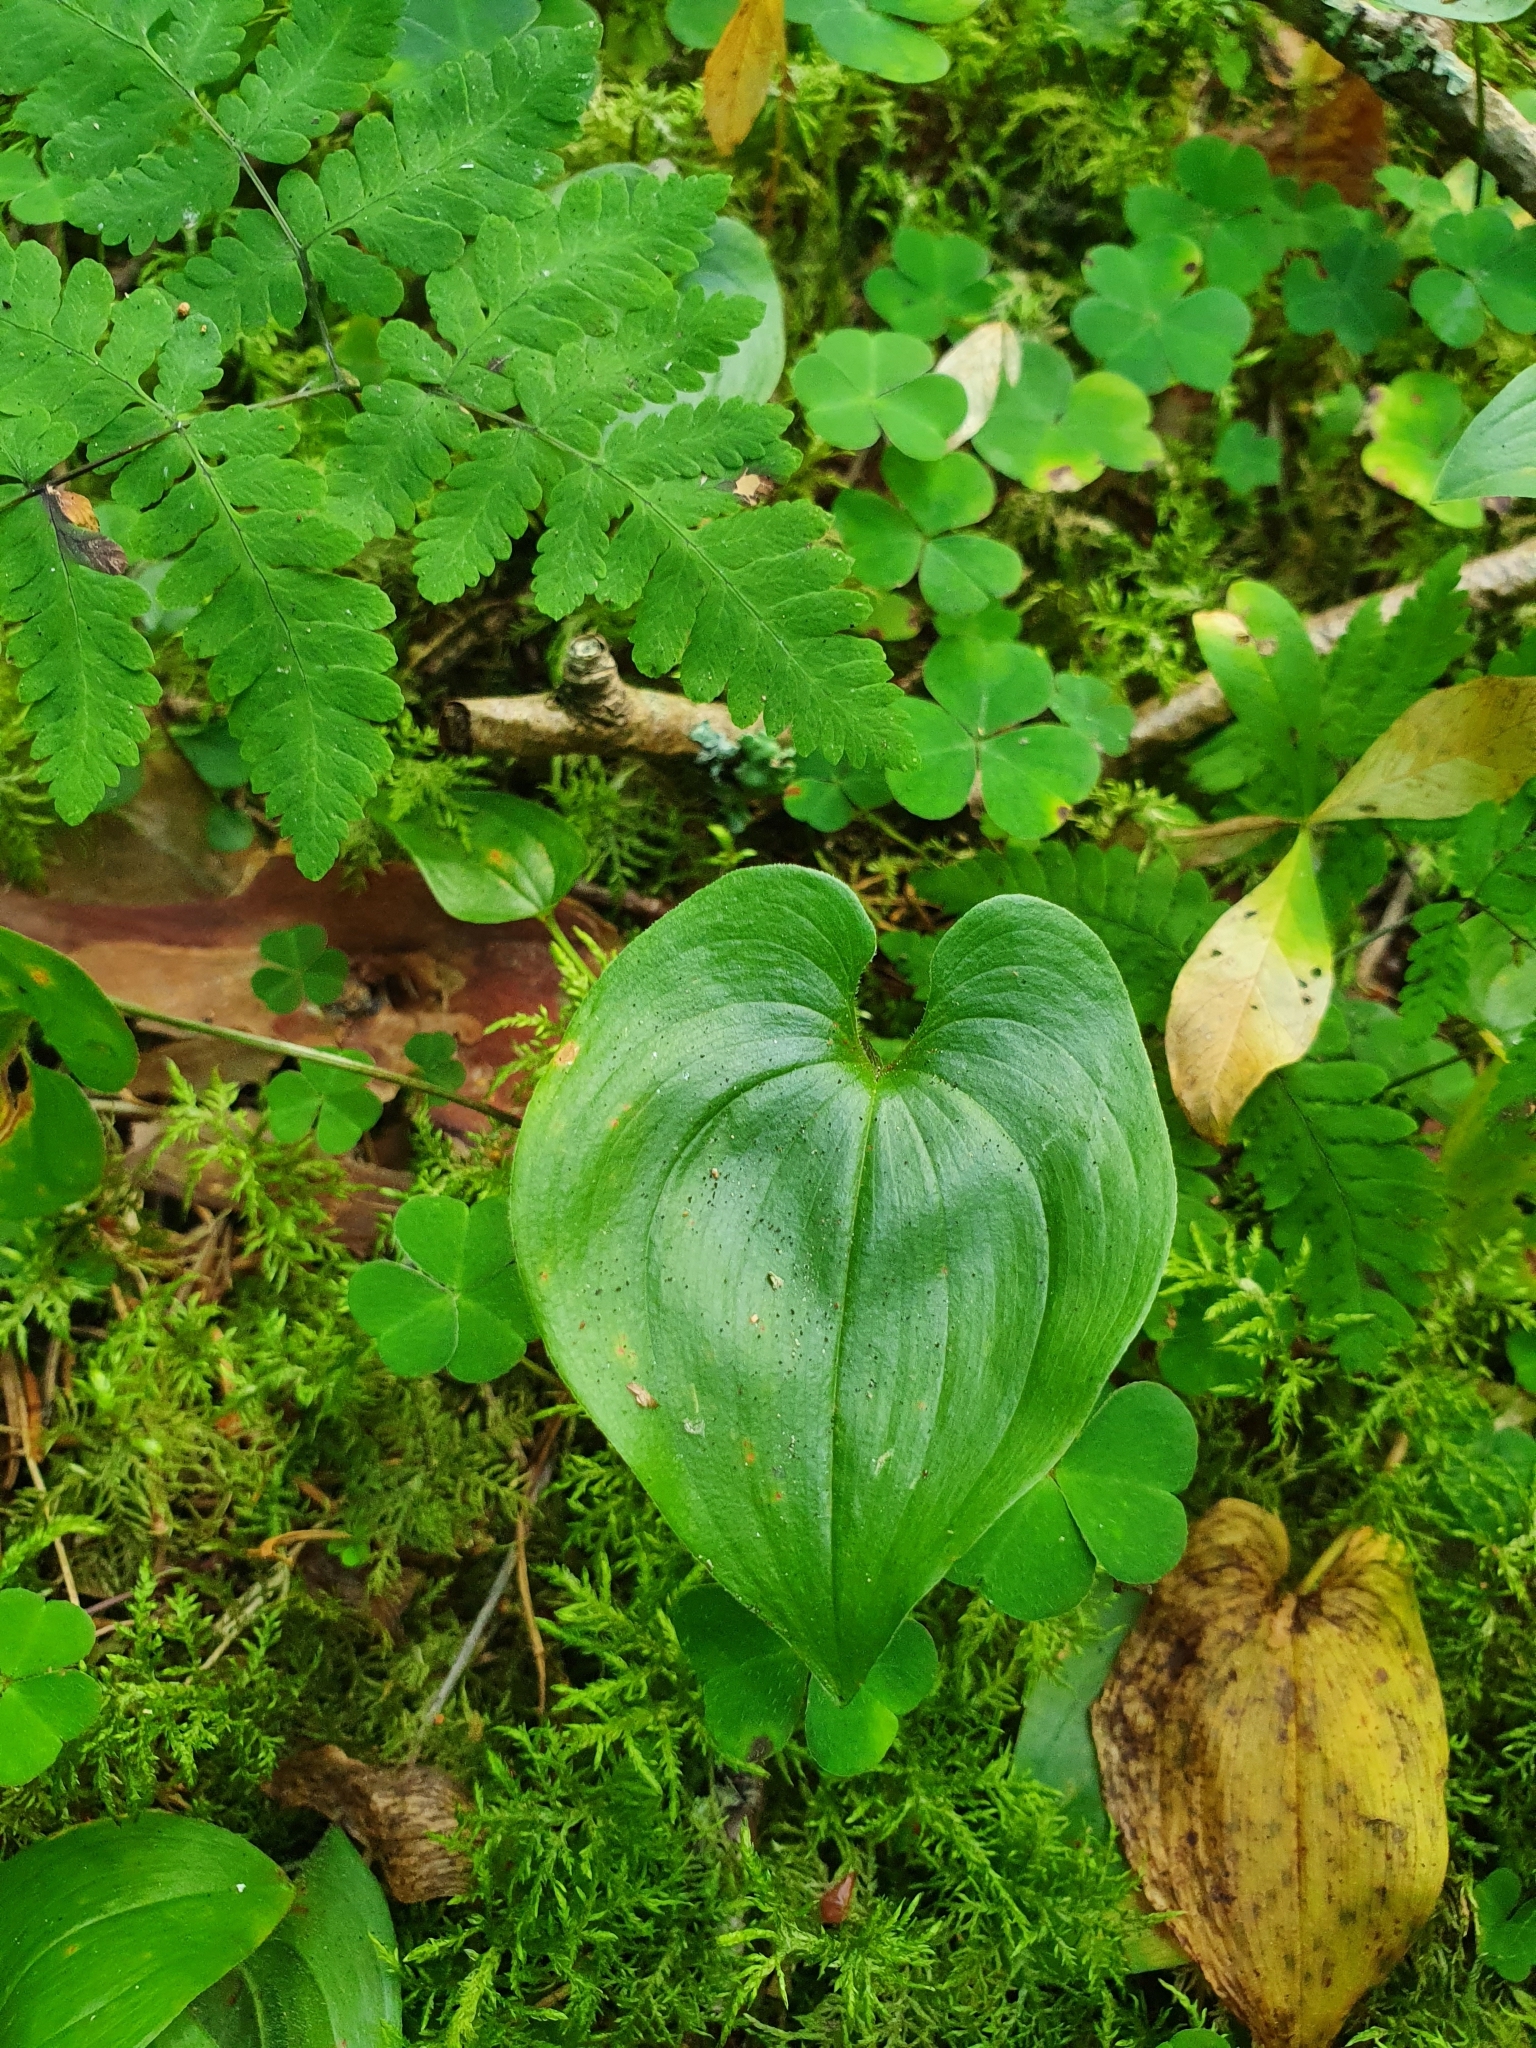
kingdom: Plantae
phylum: Tracheophyta
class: Liliopsida
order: Asparagales
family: Asparagaceae
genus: Maianthemum
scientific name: Maianthemum bifolium
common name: May lily
